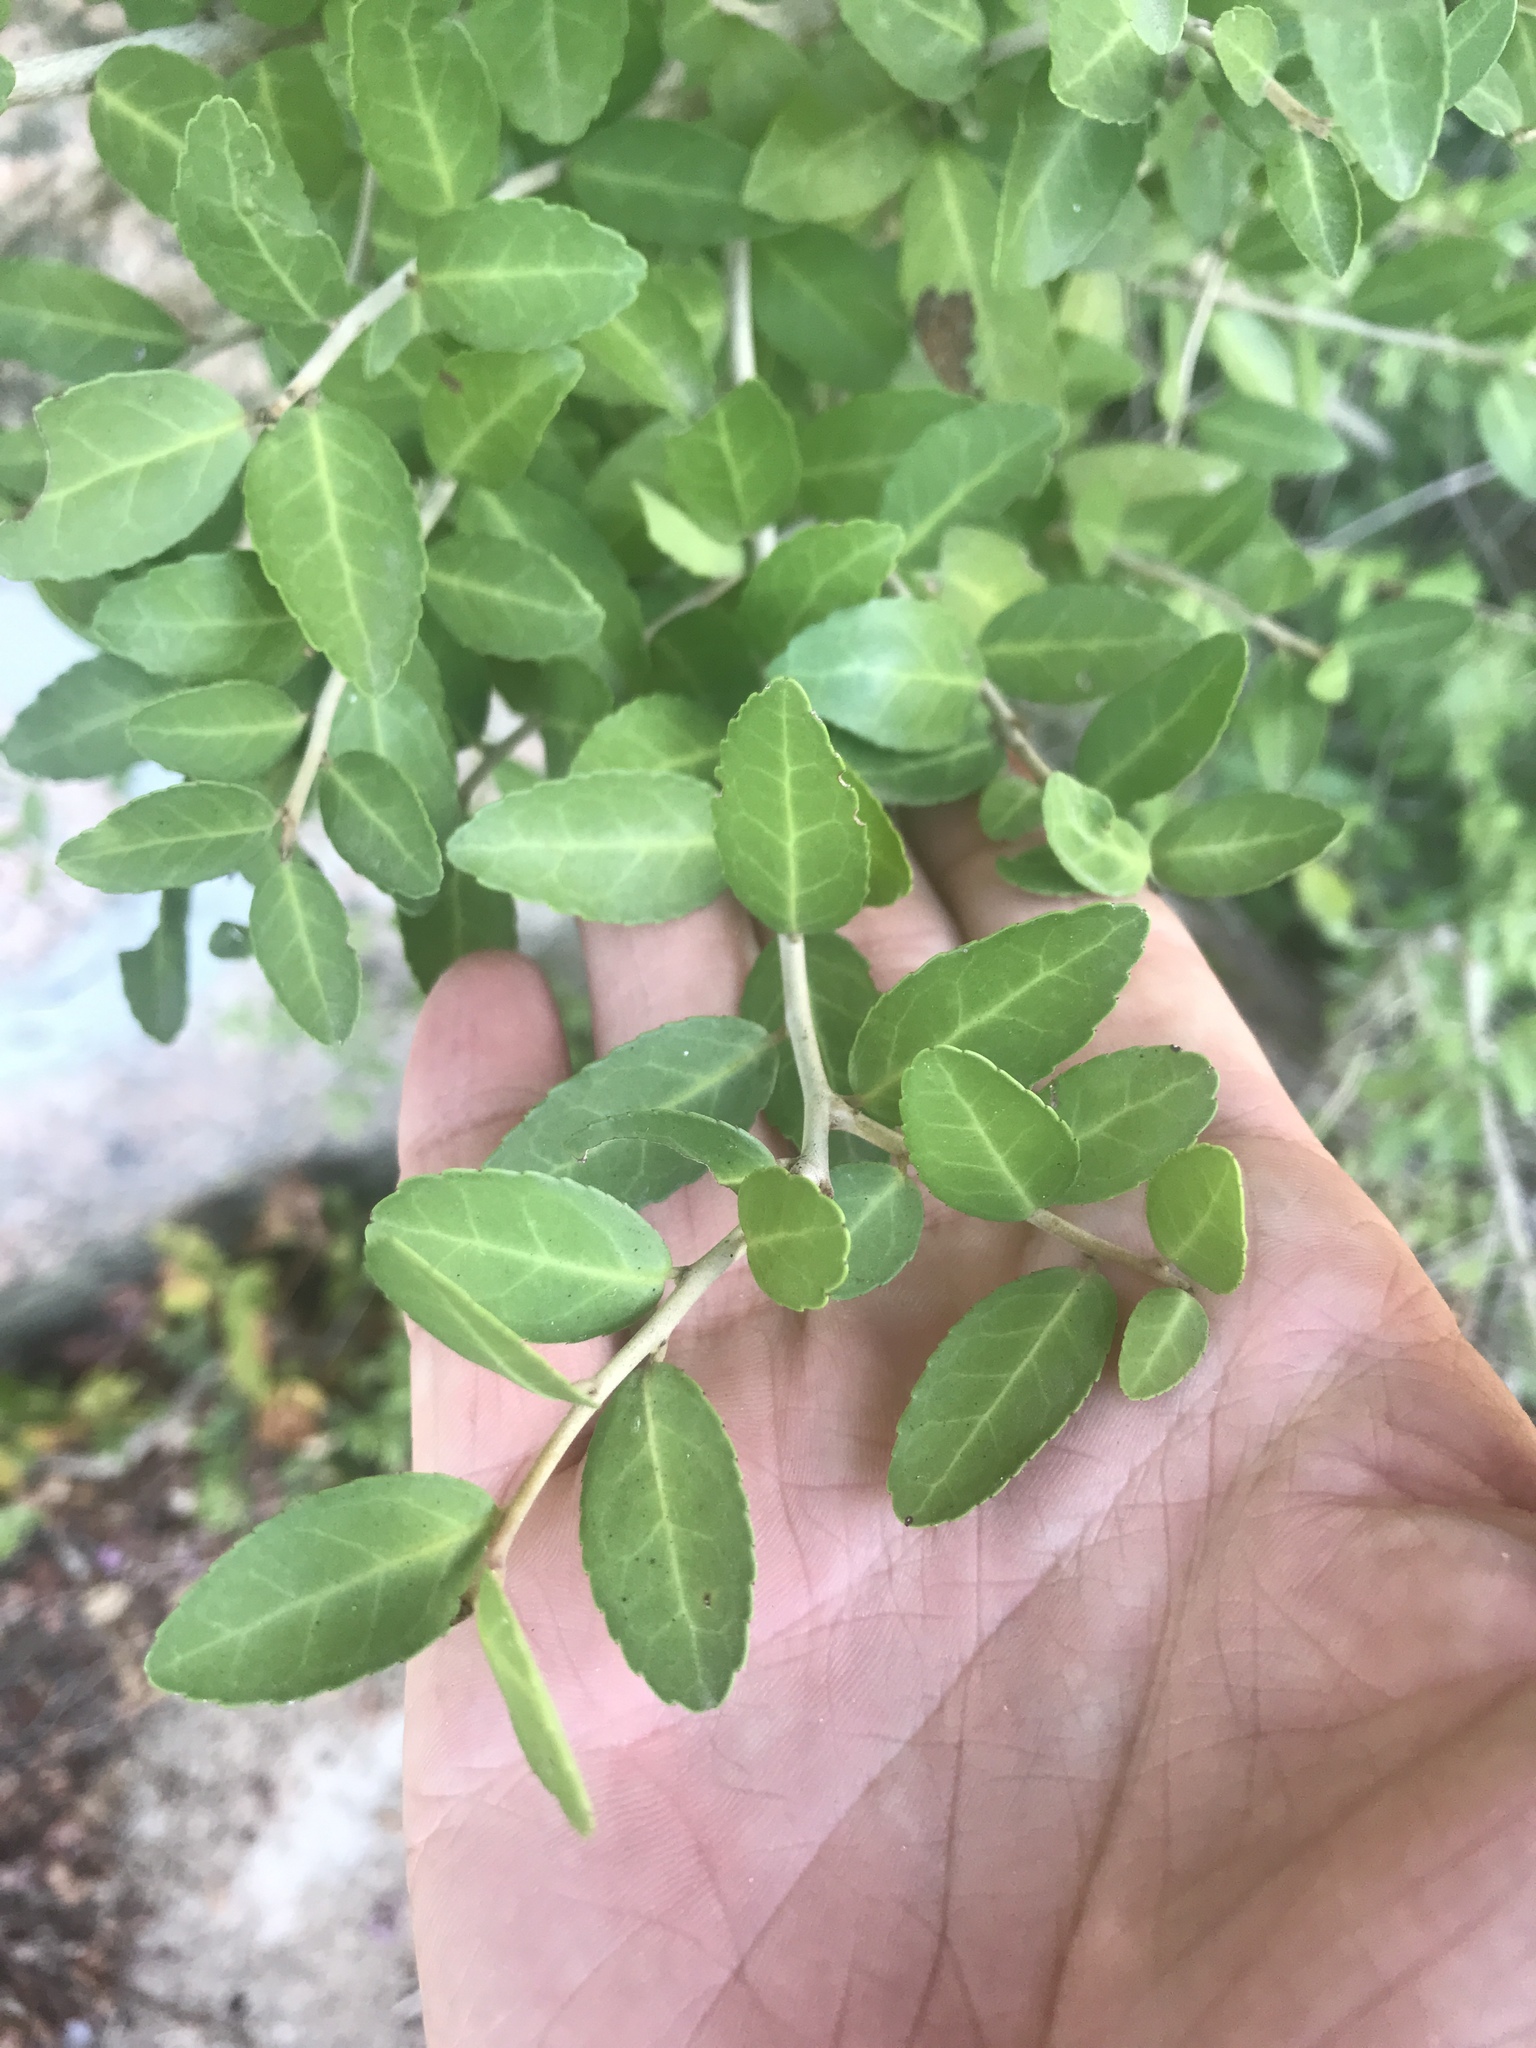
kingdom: Plantae
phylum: Tracheophyta
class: Magnoliopsida
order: Aquifoliales
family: Aquifoliaceae
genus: Ilex
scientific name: Ilex vomitoria
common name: Yaupon holly
